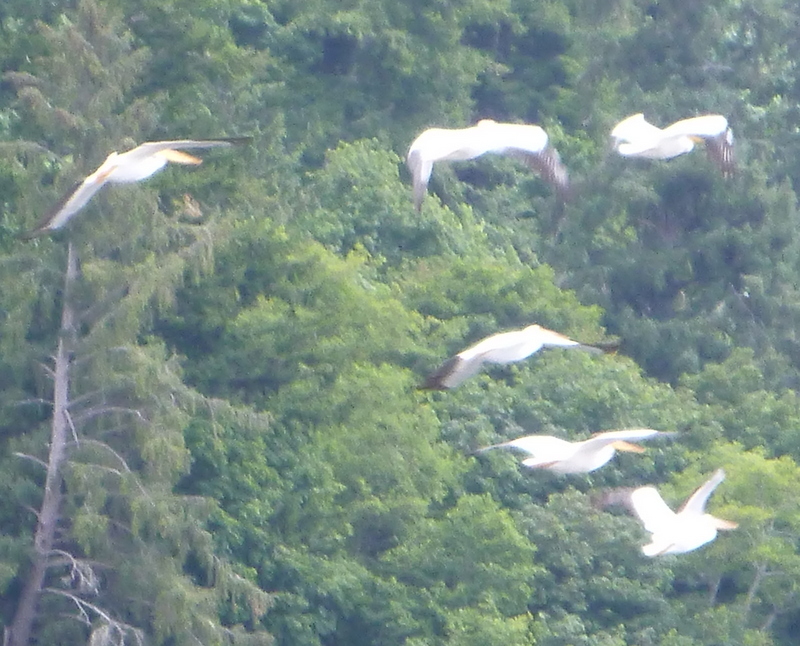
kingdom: Animalia
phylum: Chordata
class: Aves
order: Pelecaniformes
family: Pelecanidae
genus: Pelecanus
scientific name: Pelecanus erythrorhynchos
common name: American white pelican
